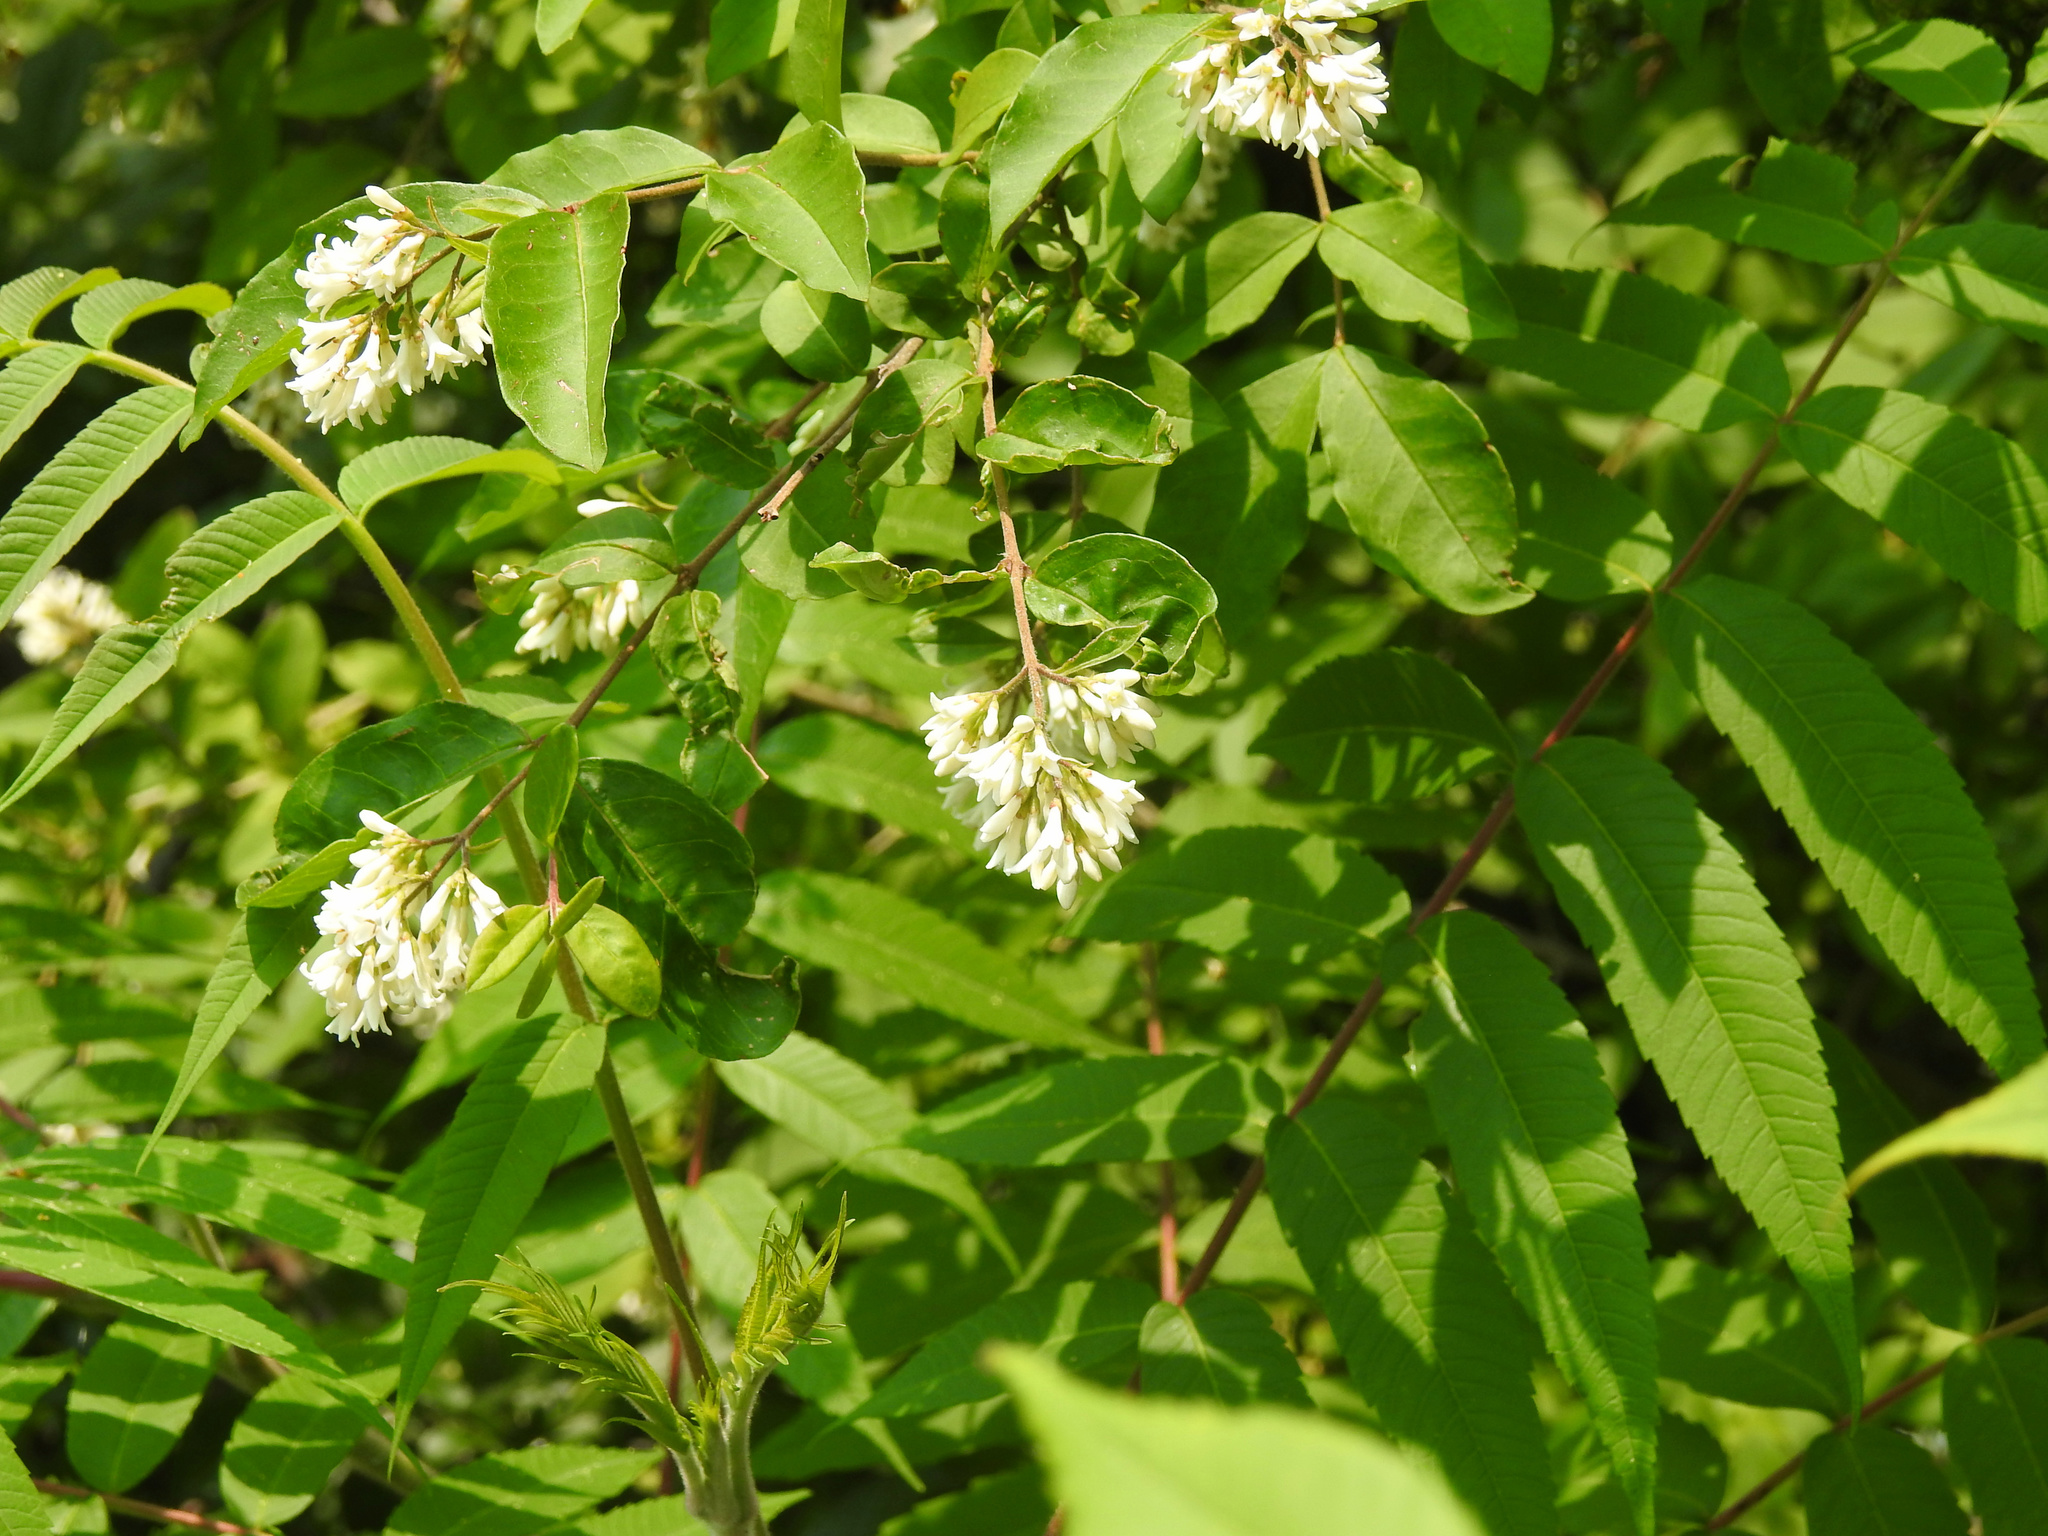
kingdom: Plantae
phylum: Tracheophyta
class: Magnoliopsida
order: Lamiales
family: Oleaceae
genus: Ligustrum
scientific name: Ligustrum obtusifolium
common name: Border privet
